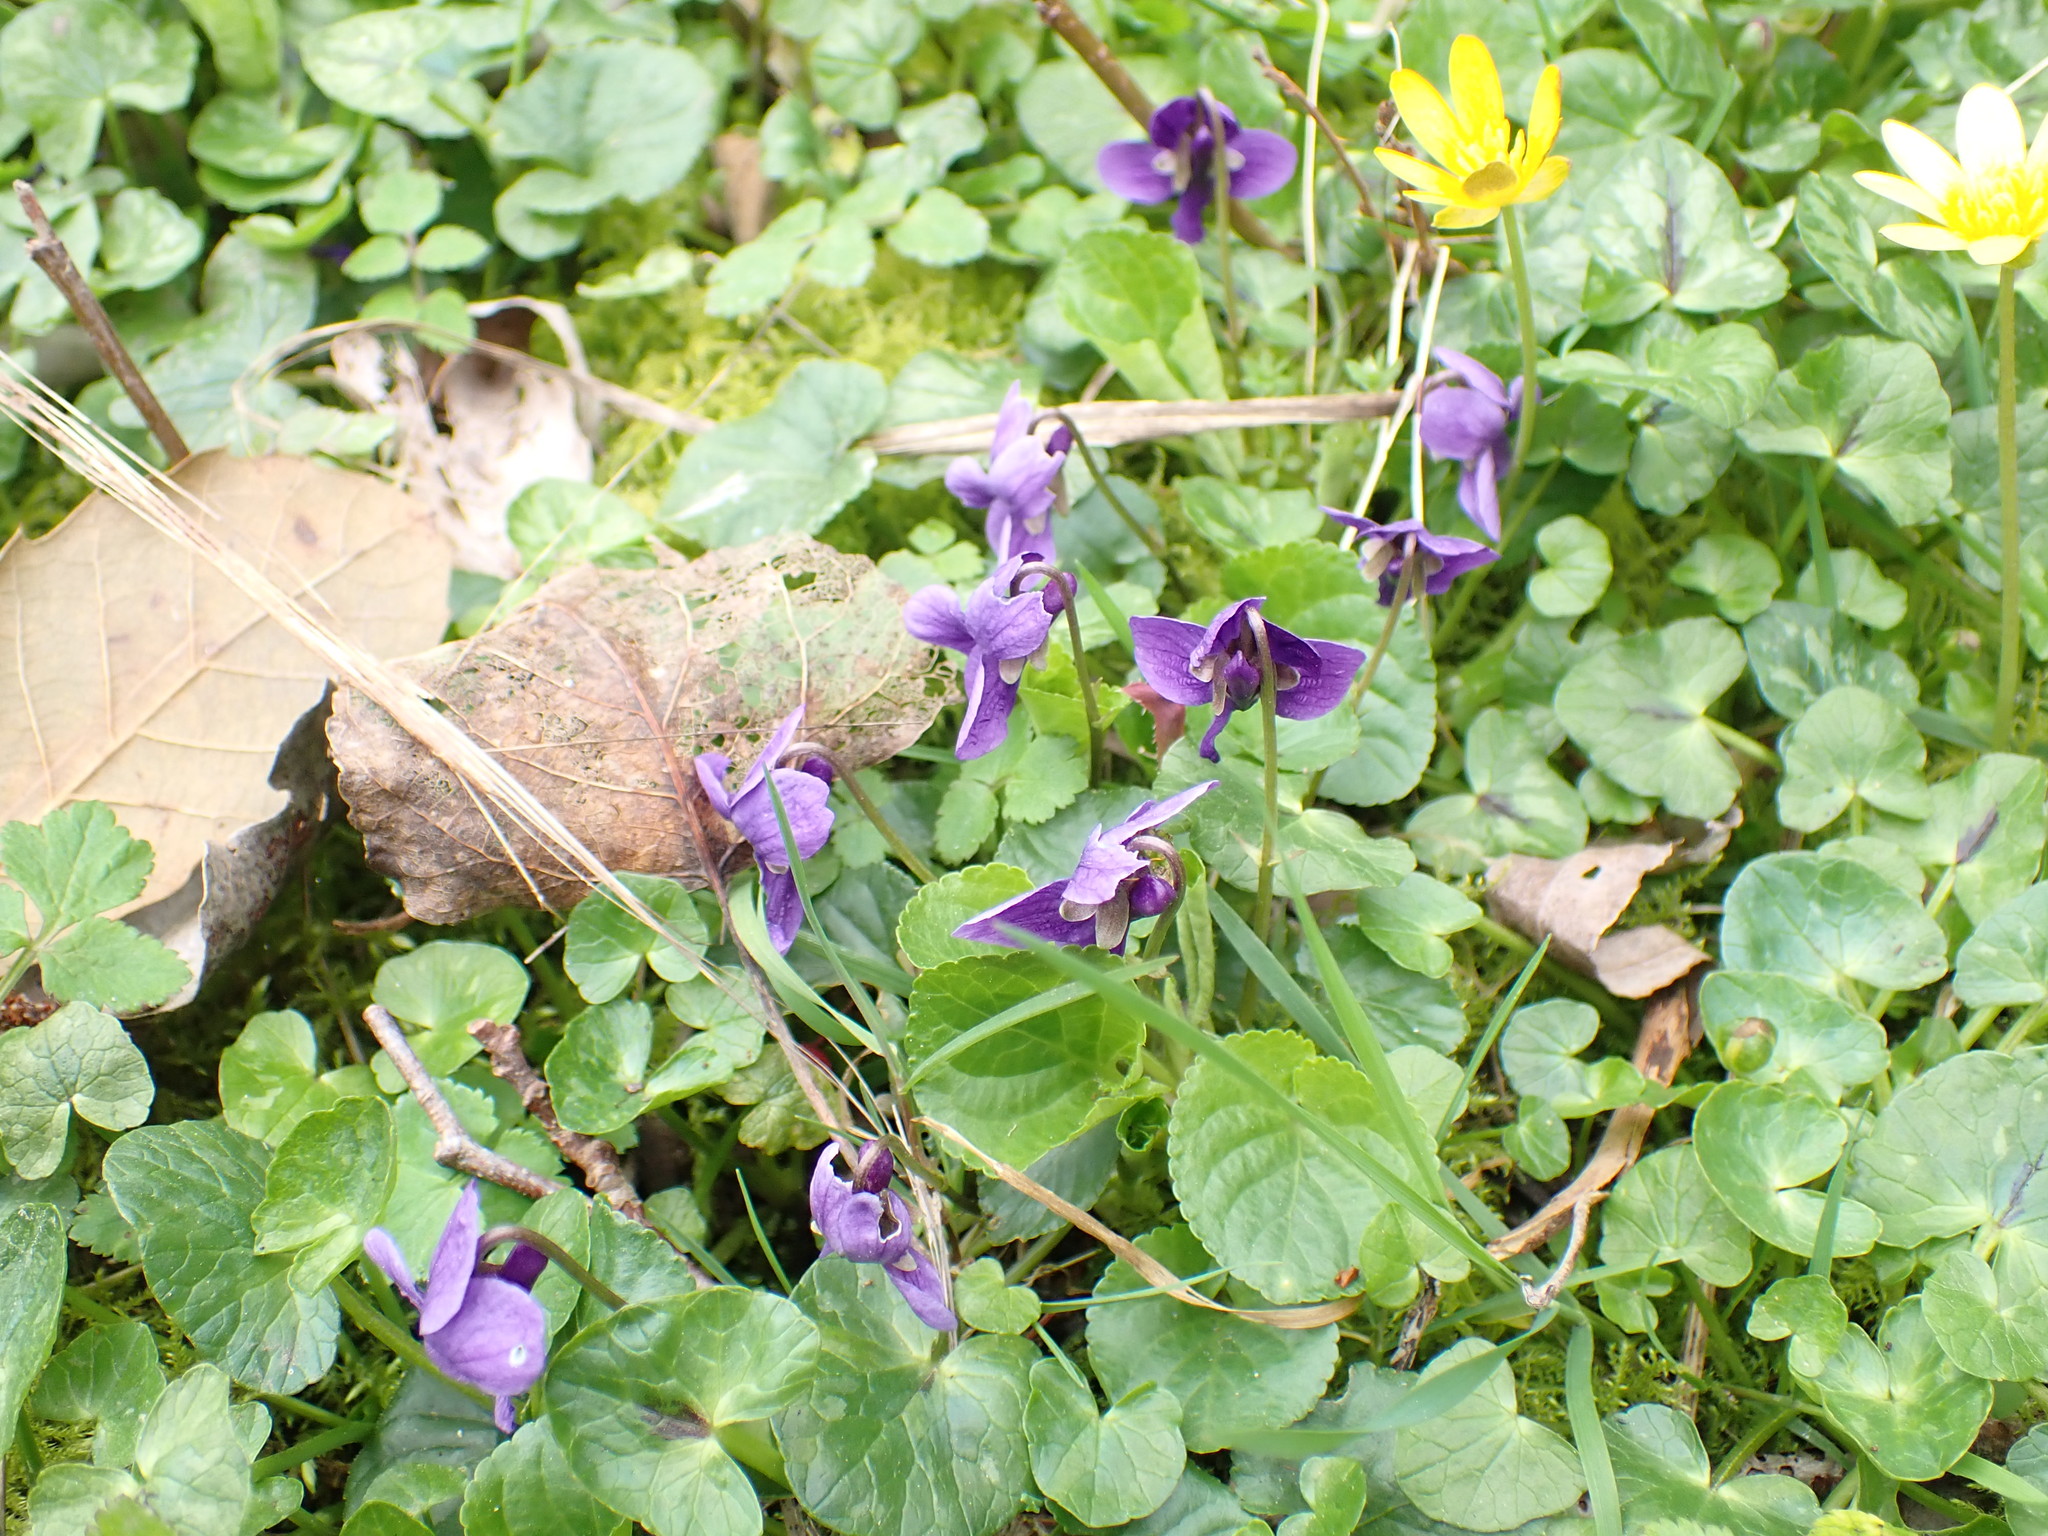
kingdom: Plantae
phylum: Tracheophyta
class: Magnoliopsida
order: Malpighiales
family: Violaceae
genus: Viola
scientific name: Viola odorata
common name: Sweet violet
